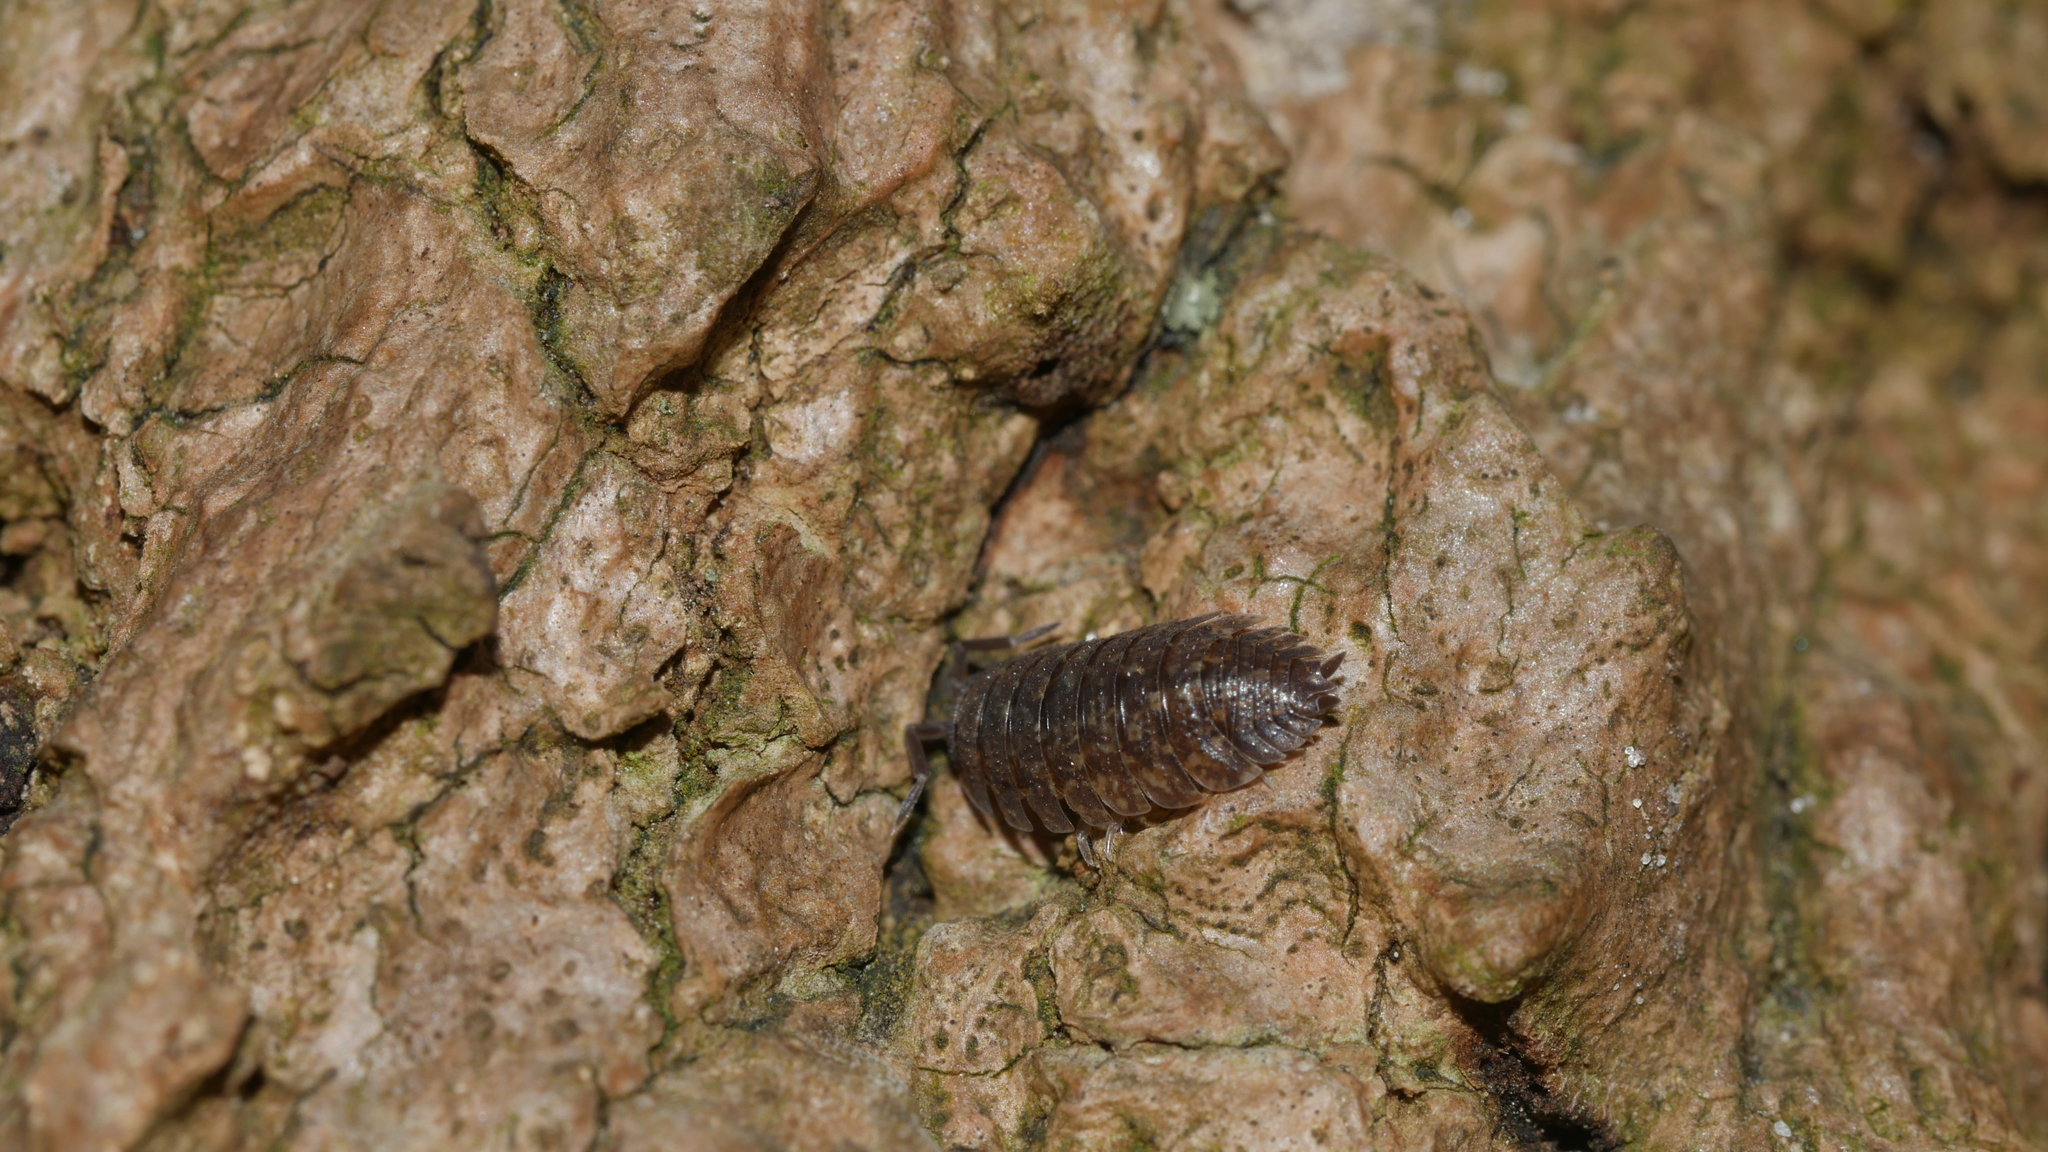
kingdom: Animalia
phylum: Arthropoda
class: Malacostraca
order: Isopoda
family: Porcellionidae
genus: Porcellio
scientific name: Porcellio scaber
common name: Common rough woodlouse
